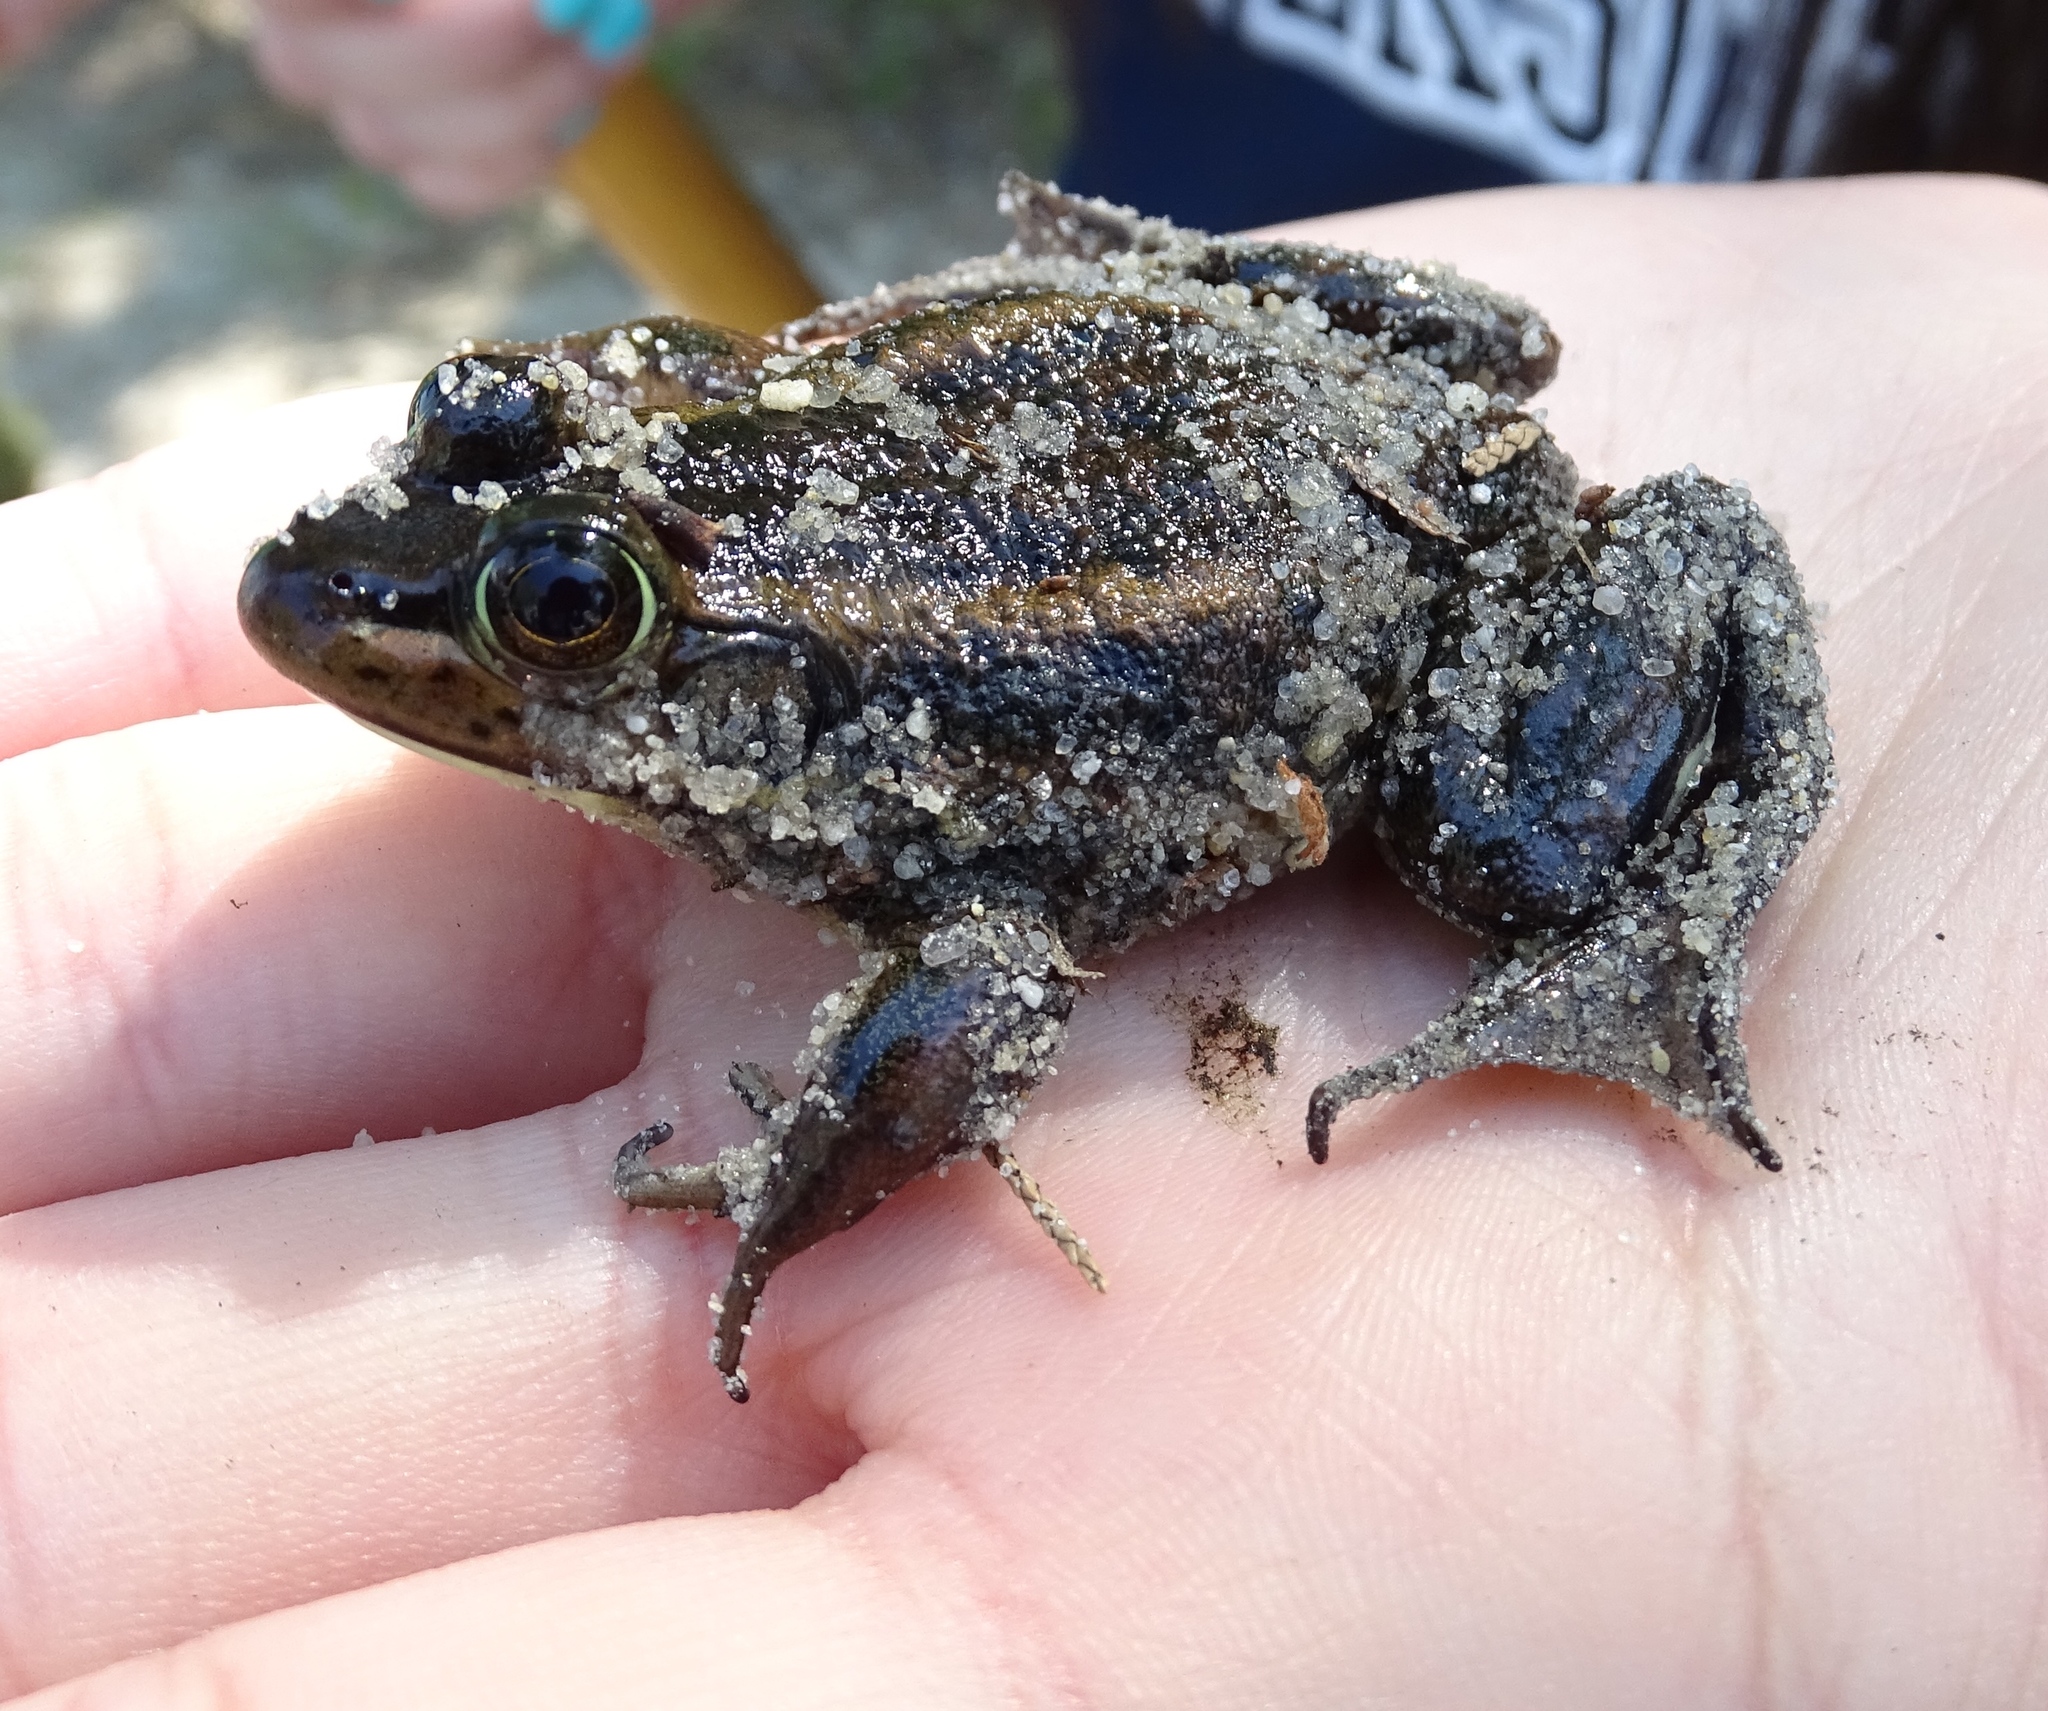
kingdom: Animalia
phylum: Chordata
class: Amphibia
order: Anura
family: Ranidae
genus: Lithobates
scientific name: Lithobates virgatipes
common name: Carpenter frog
